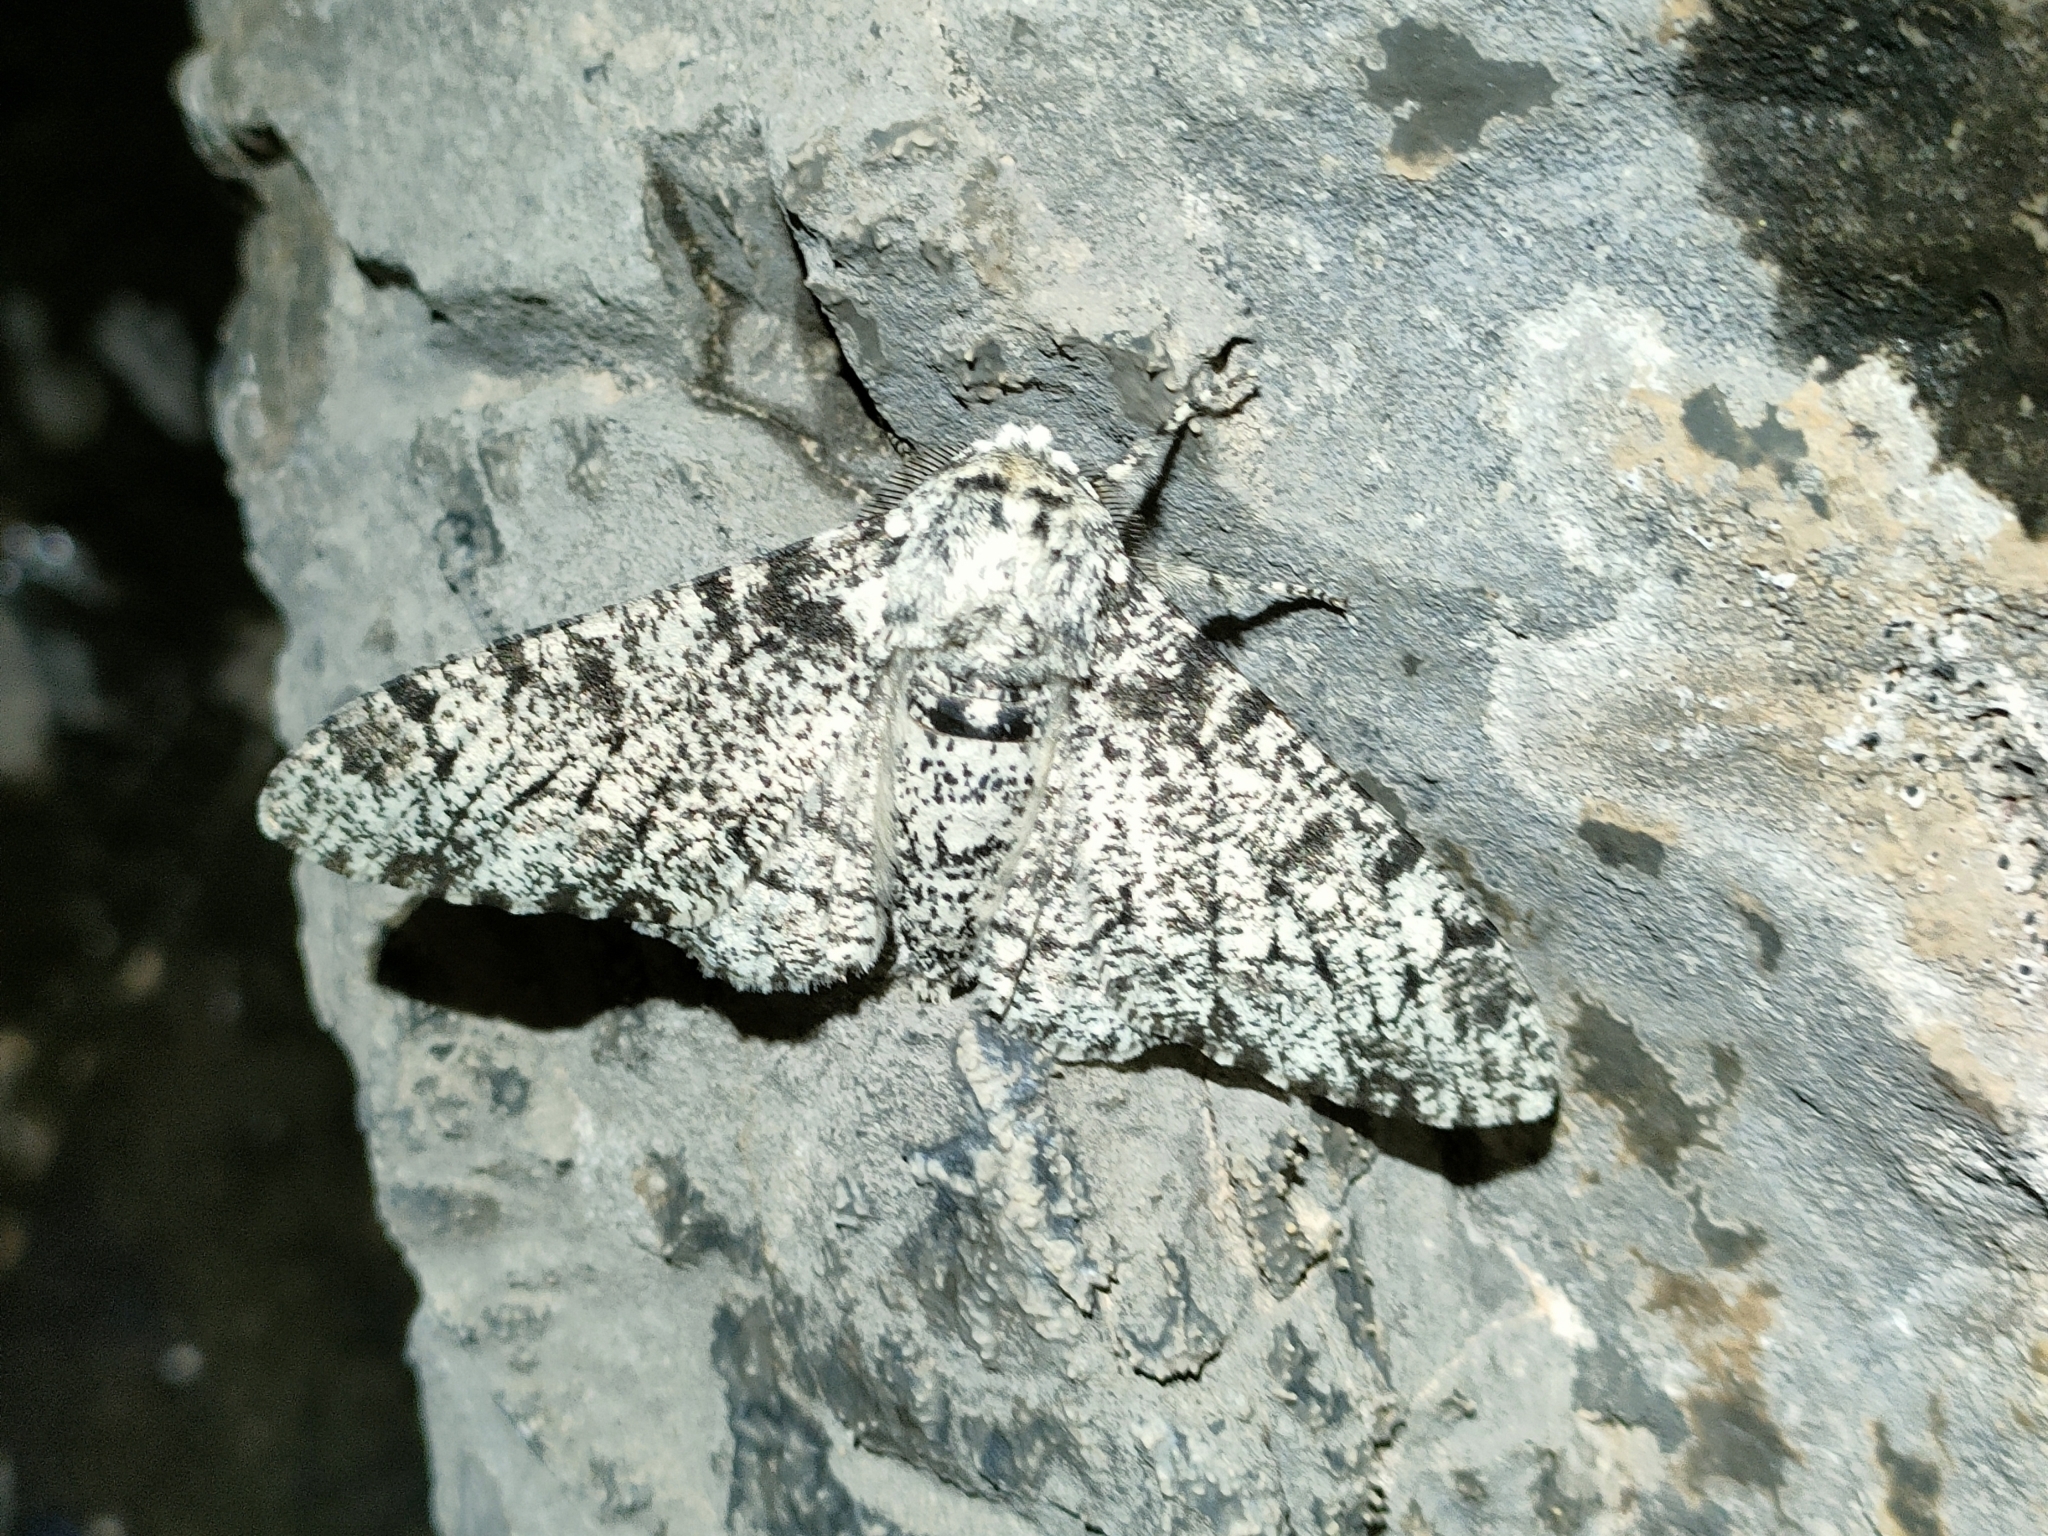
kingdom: Animalia
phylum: Arthropoda
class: Insecta
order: Lepidoptera
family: Geometridae
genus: Biston
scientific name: Biston betularia
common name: Peppered moth
